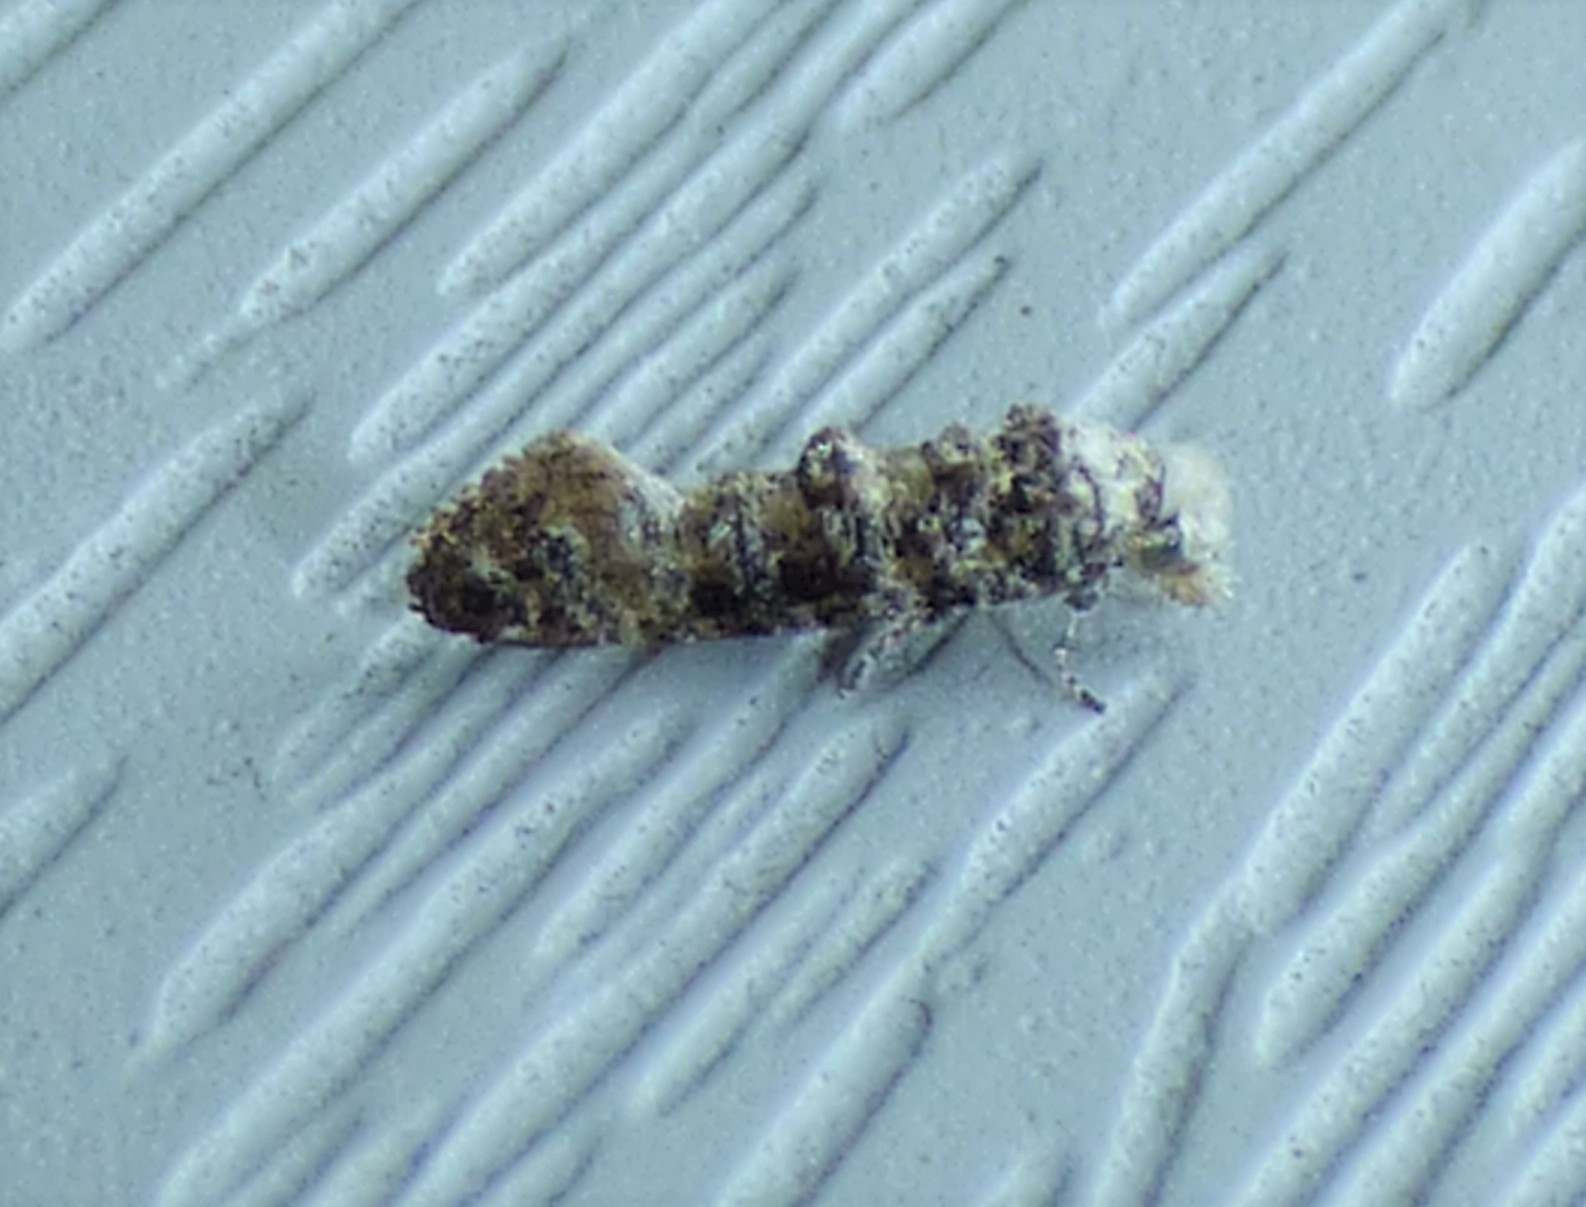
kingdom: Animalia
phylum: Arthropoda
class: Insecta
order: Lepidoptera
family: Tineidae
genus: Xylesthia
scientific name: Xylesthia pruniramiella
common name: Clemens' bark moth
